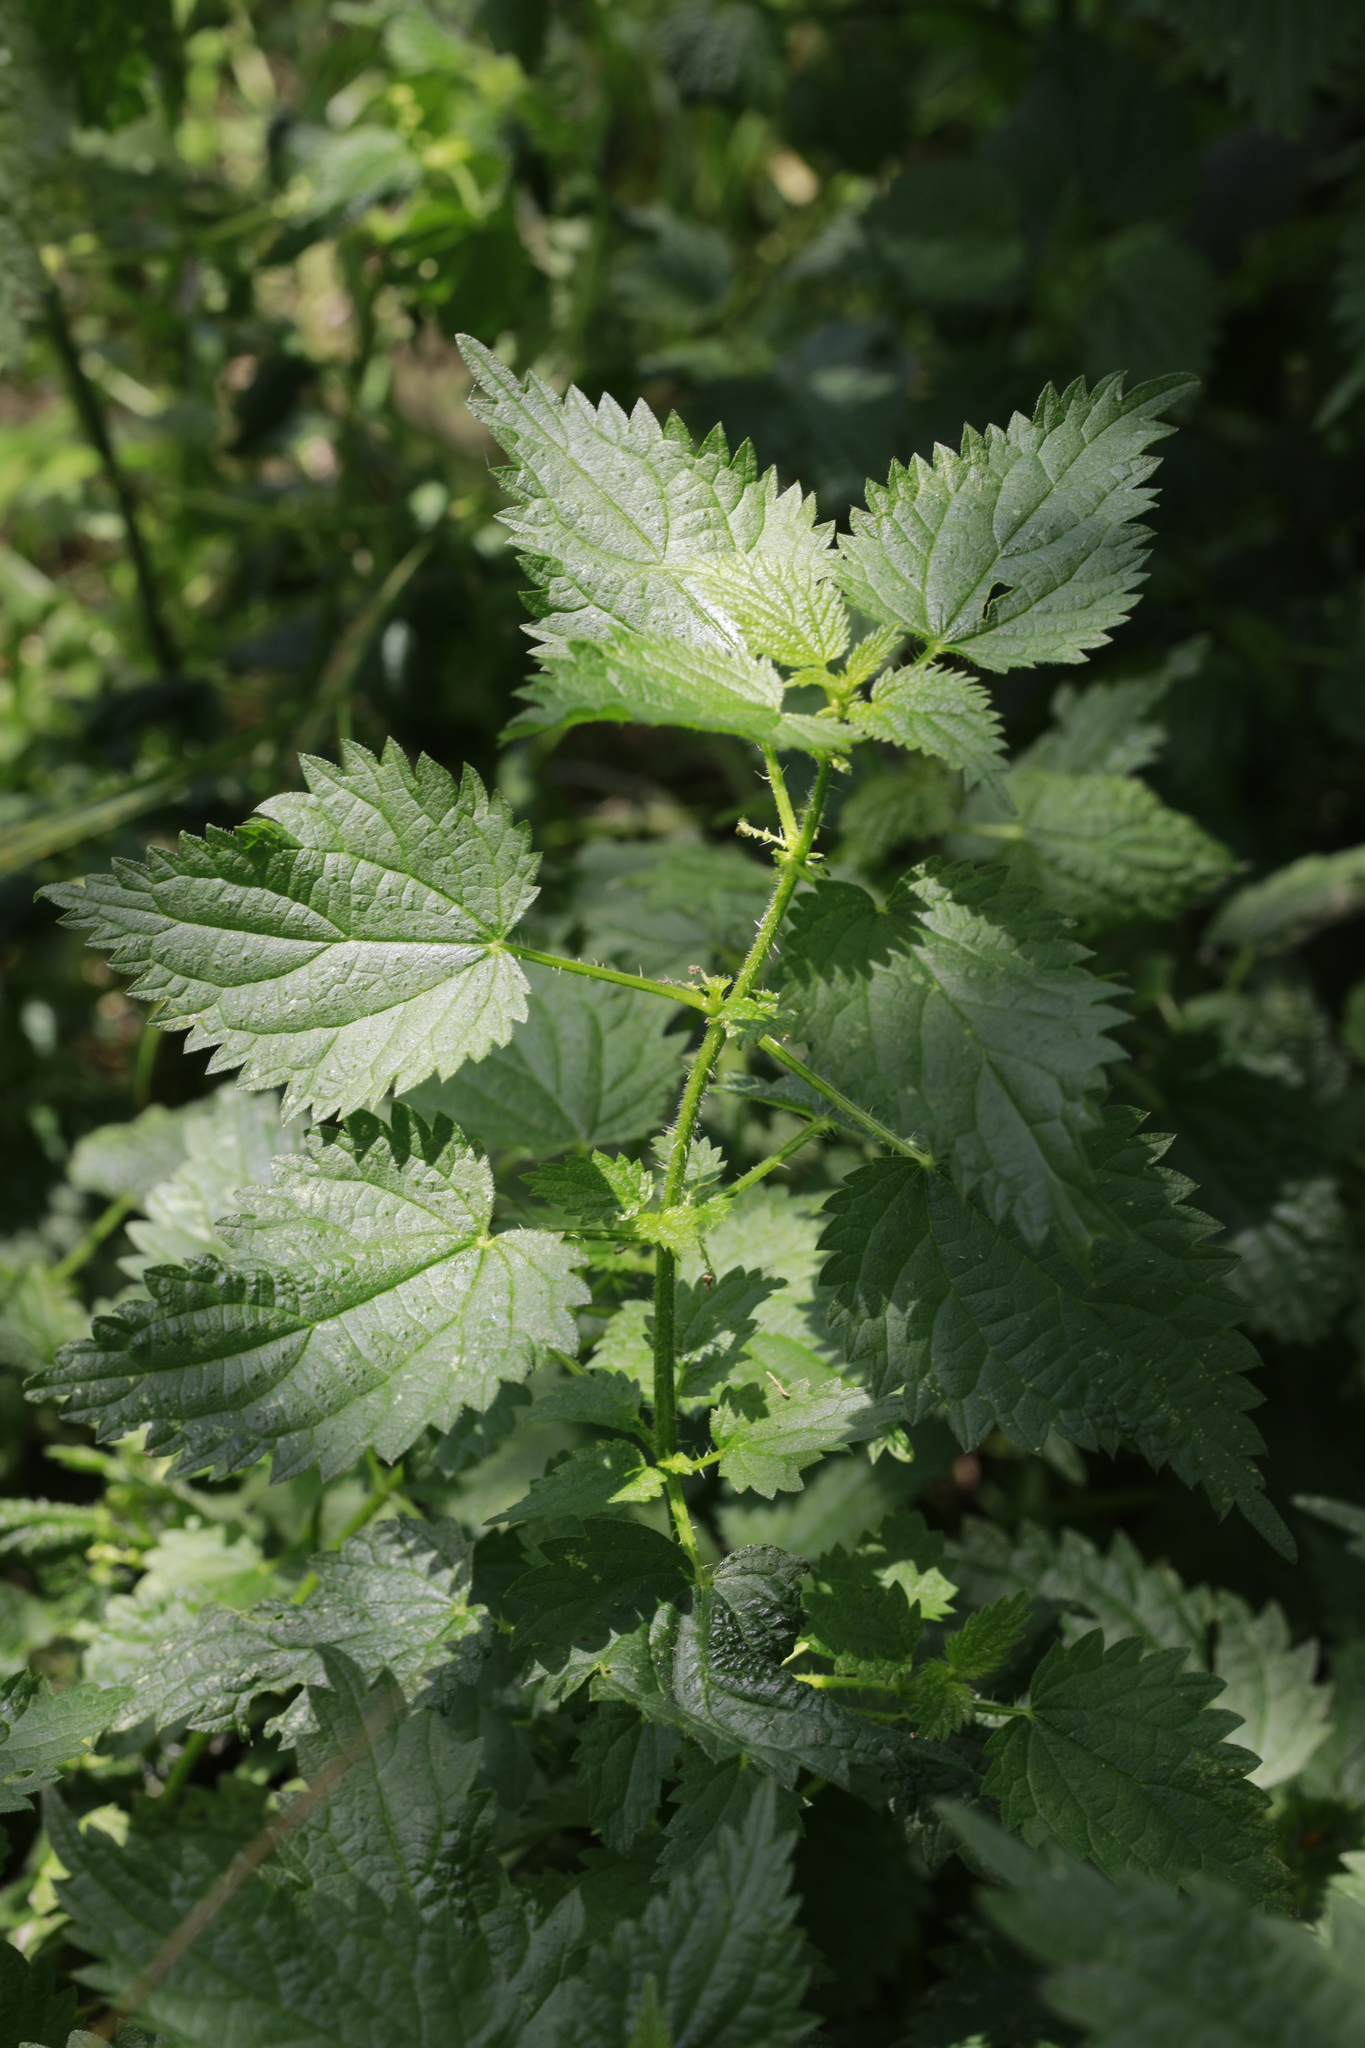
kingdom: Plantae
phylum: Tracheophyta
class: Magnoliopsida
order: Rosales
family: Urticaceae
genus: Urtica
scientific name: Urtica dioica
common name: Common nettle
